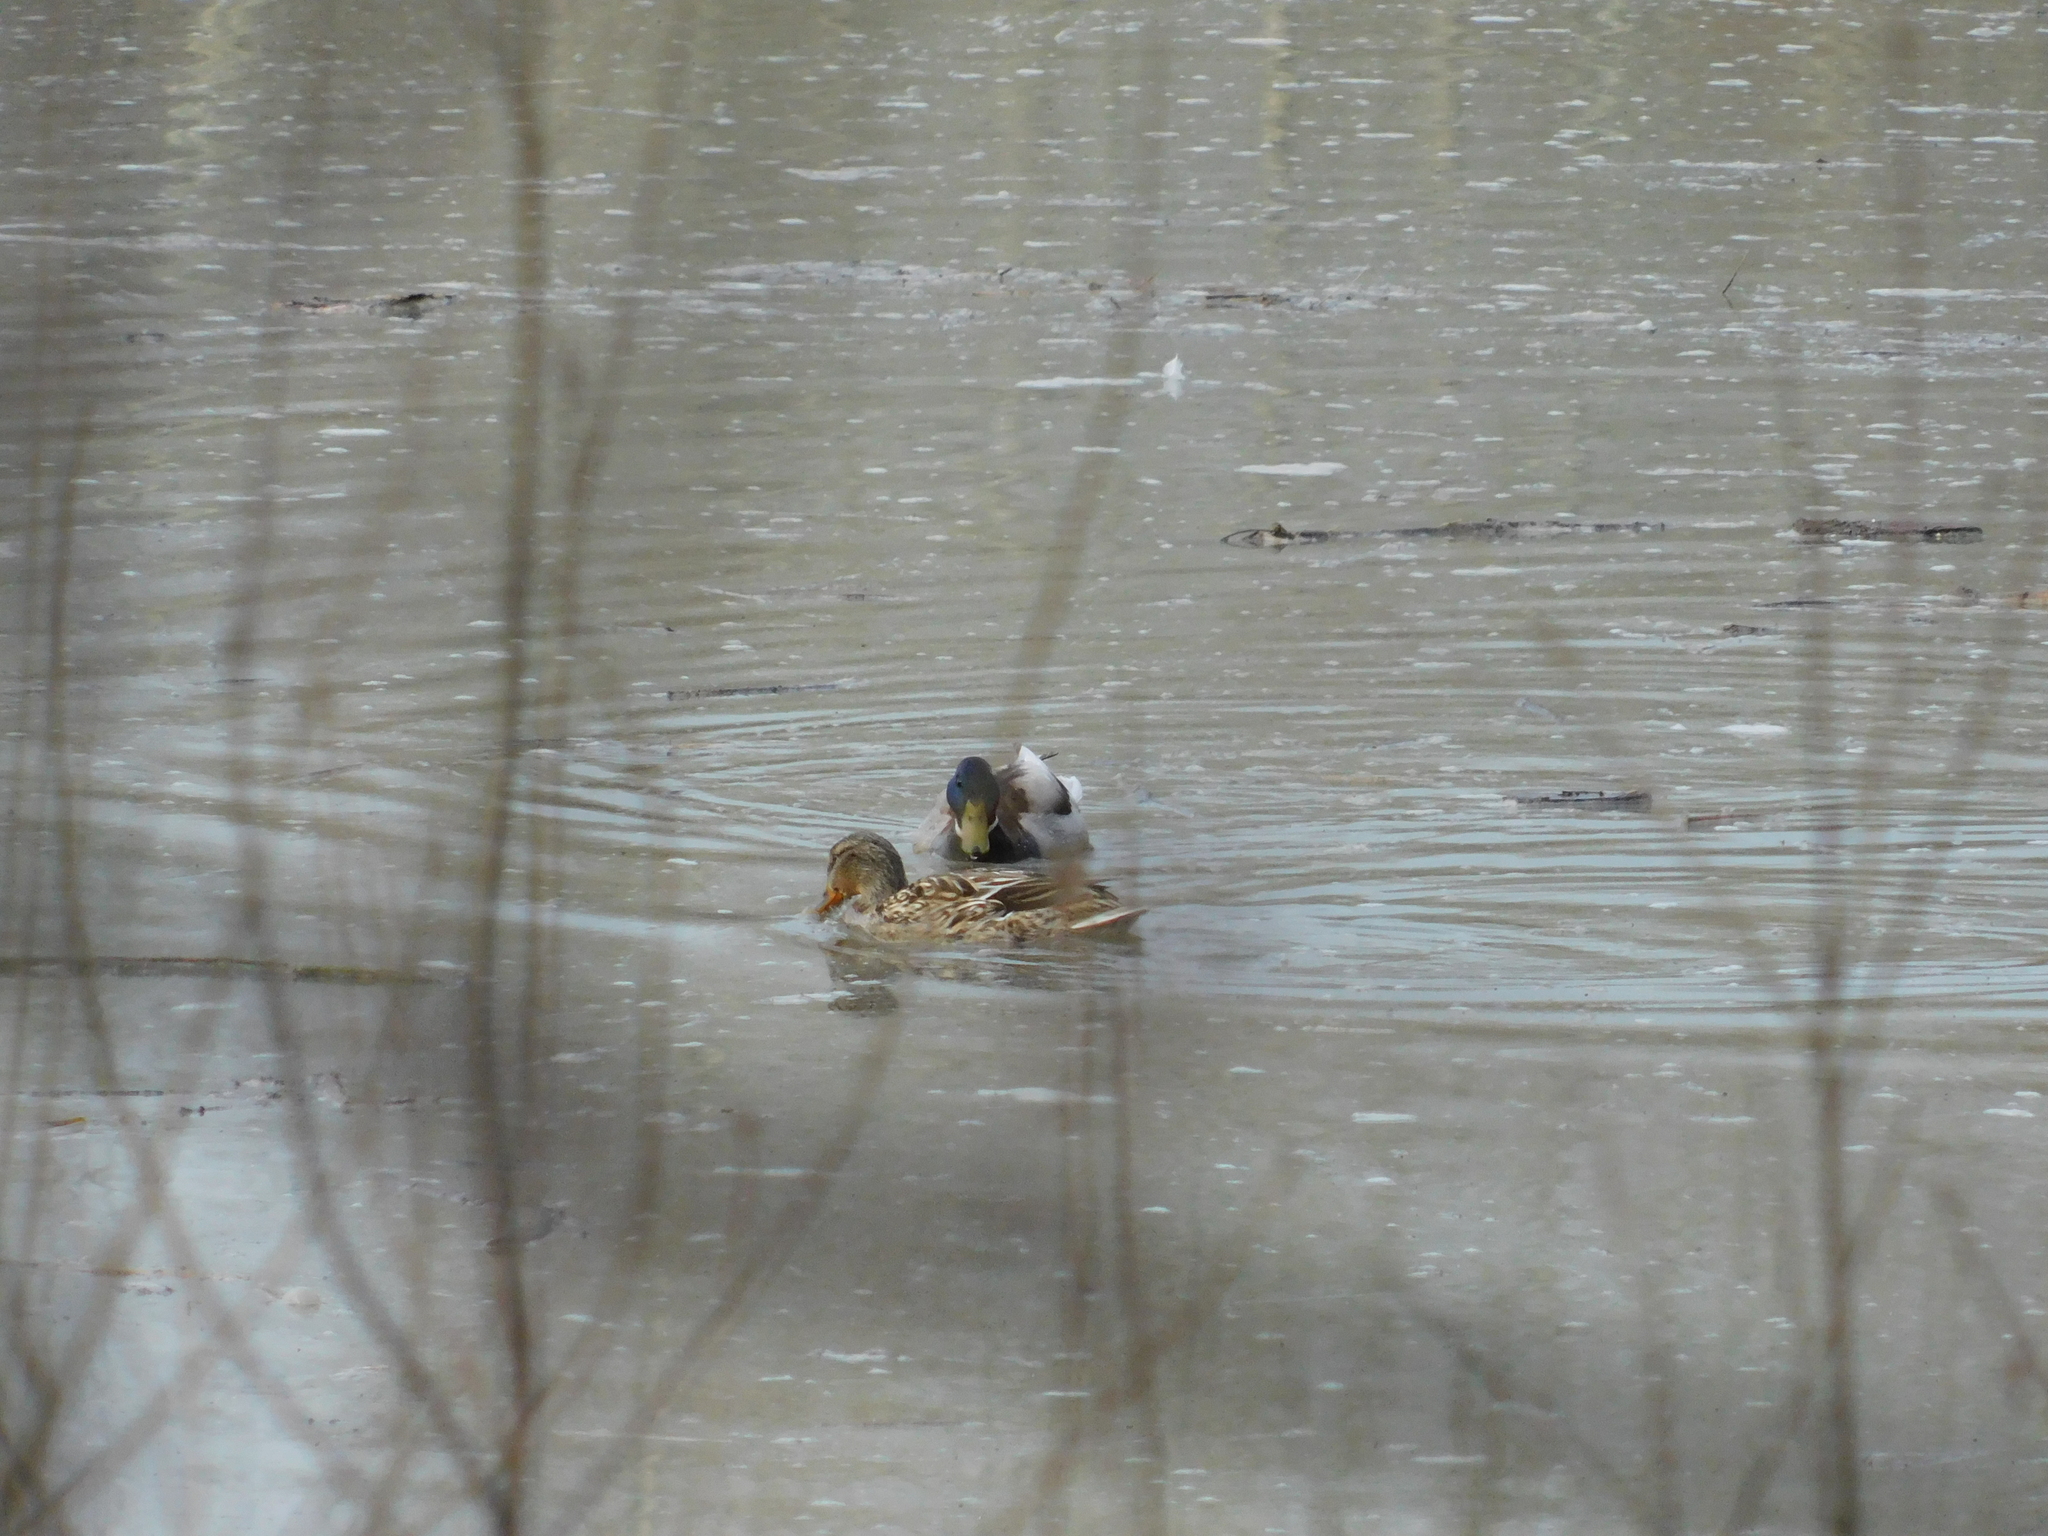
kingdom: Animalia
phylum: Chordata
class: Aves
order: Anseriformes
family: Anatidae
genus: Anas
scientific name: Anas platyrhynchos
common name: Mallard
